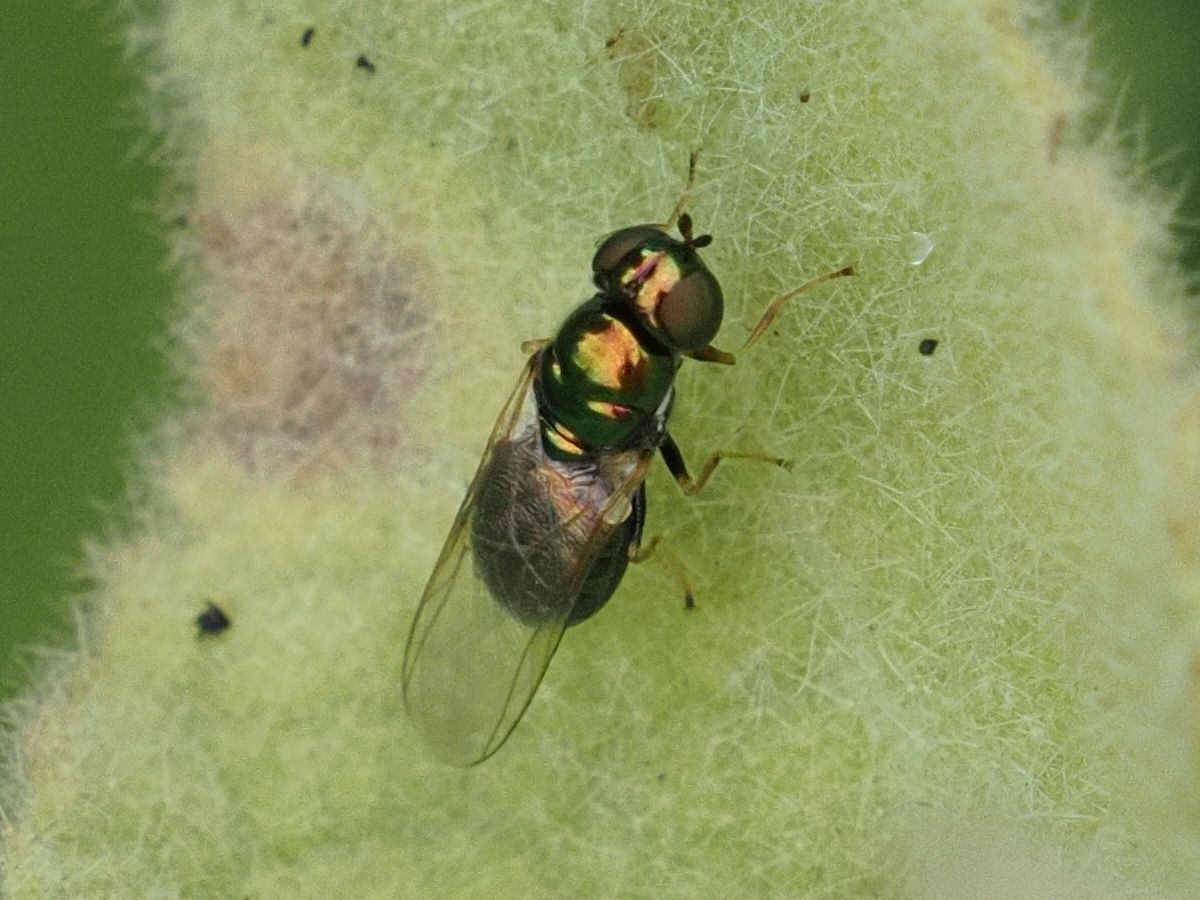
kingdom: Animalia
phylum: Arthropoda
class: Insecta
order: Diptera
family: Stratiomyidae
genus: Microchrysa
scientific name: Microchrysa polita
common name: Black-horned gem
